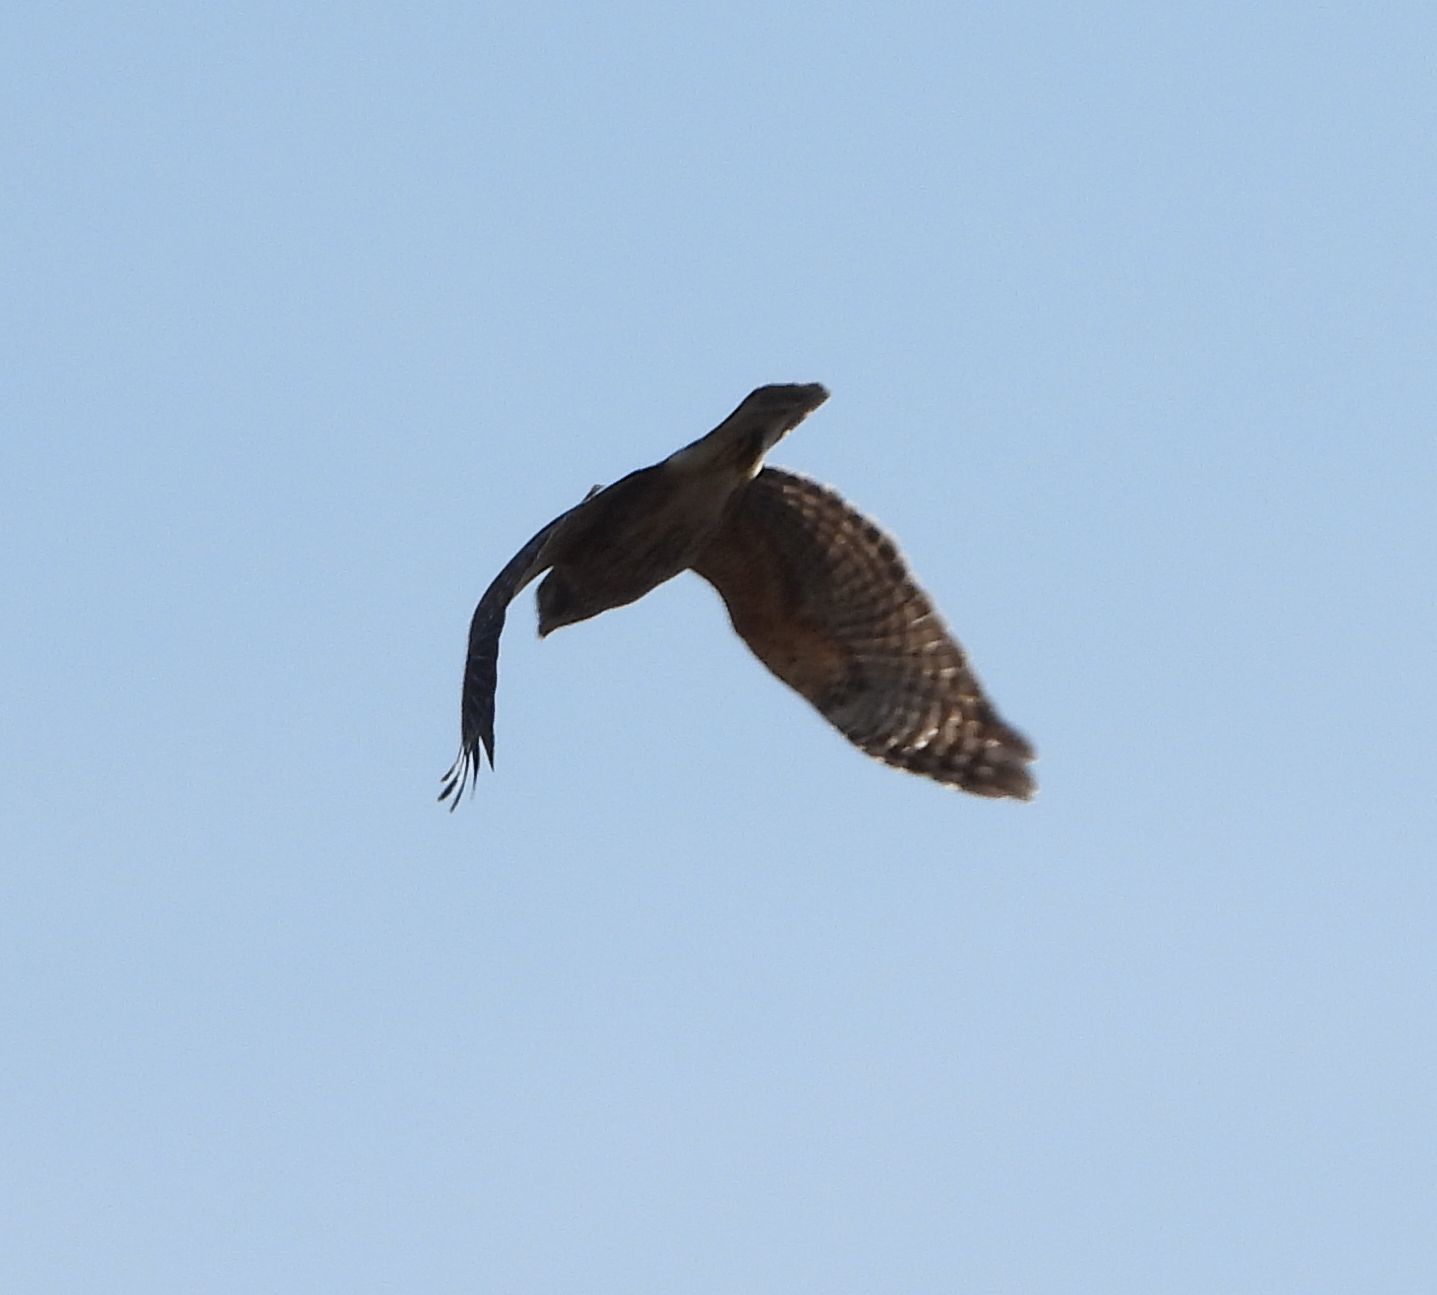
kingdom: Animalia
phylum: Chordata
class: Aves
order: Accipitriformes
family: Accipitridae
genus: Buteo
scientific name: Buteo lineatus
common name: Red-shouldered hawk
